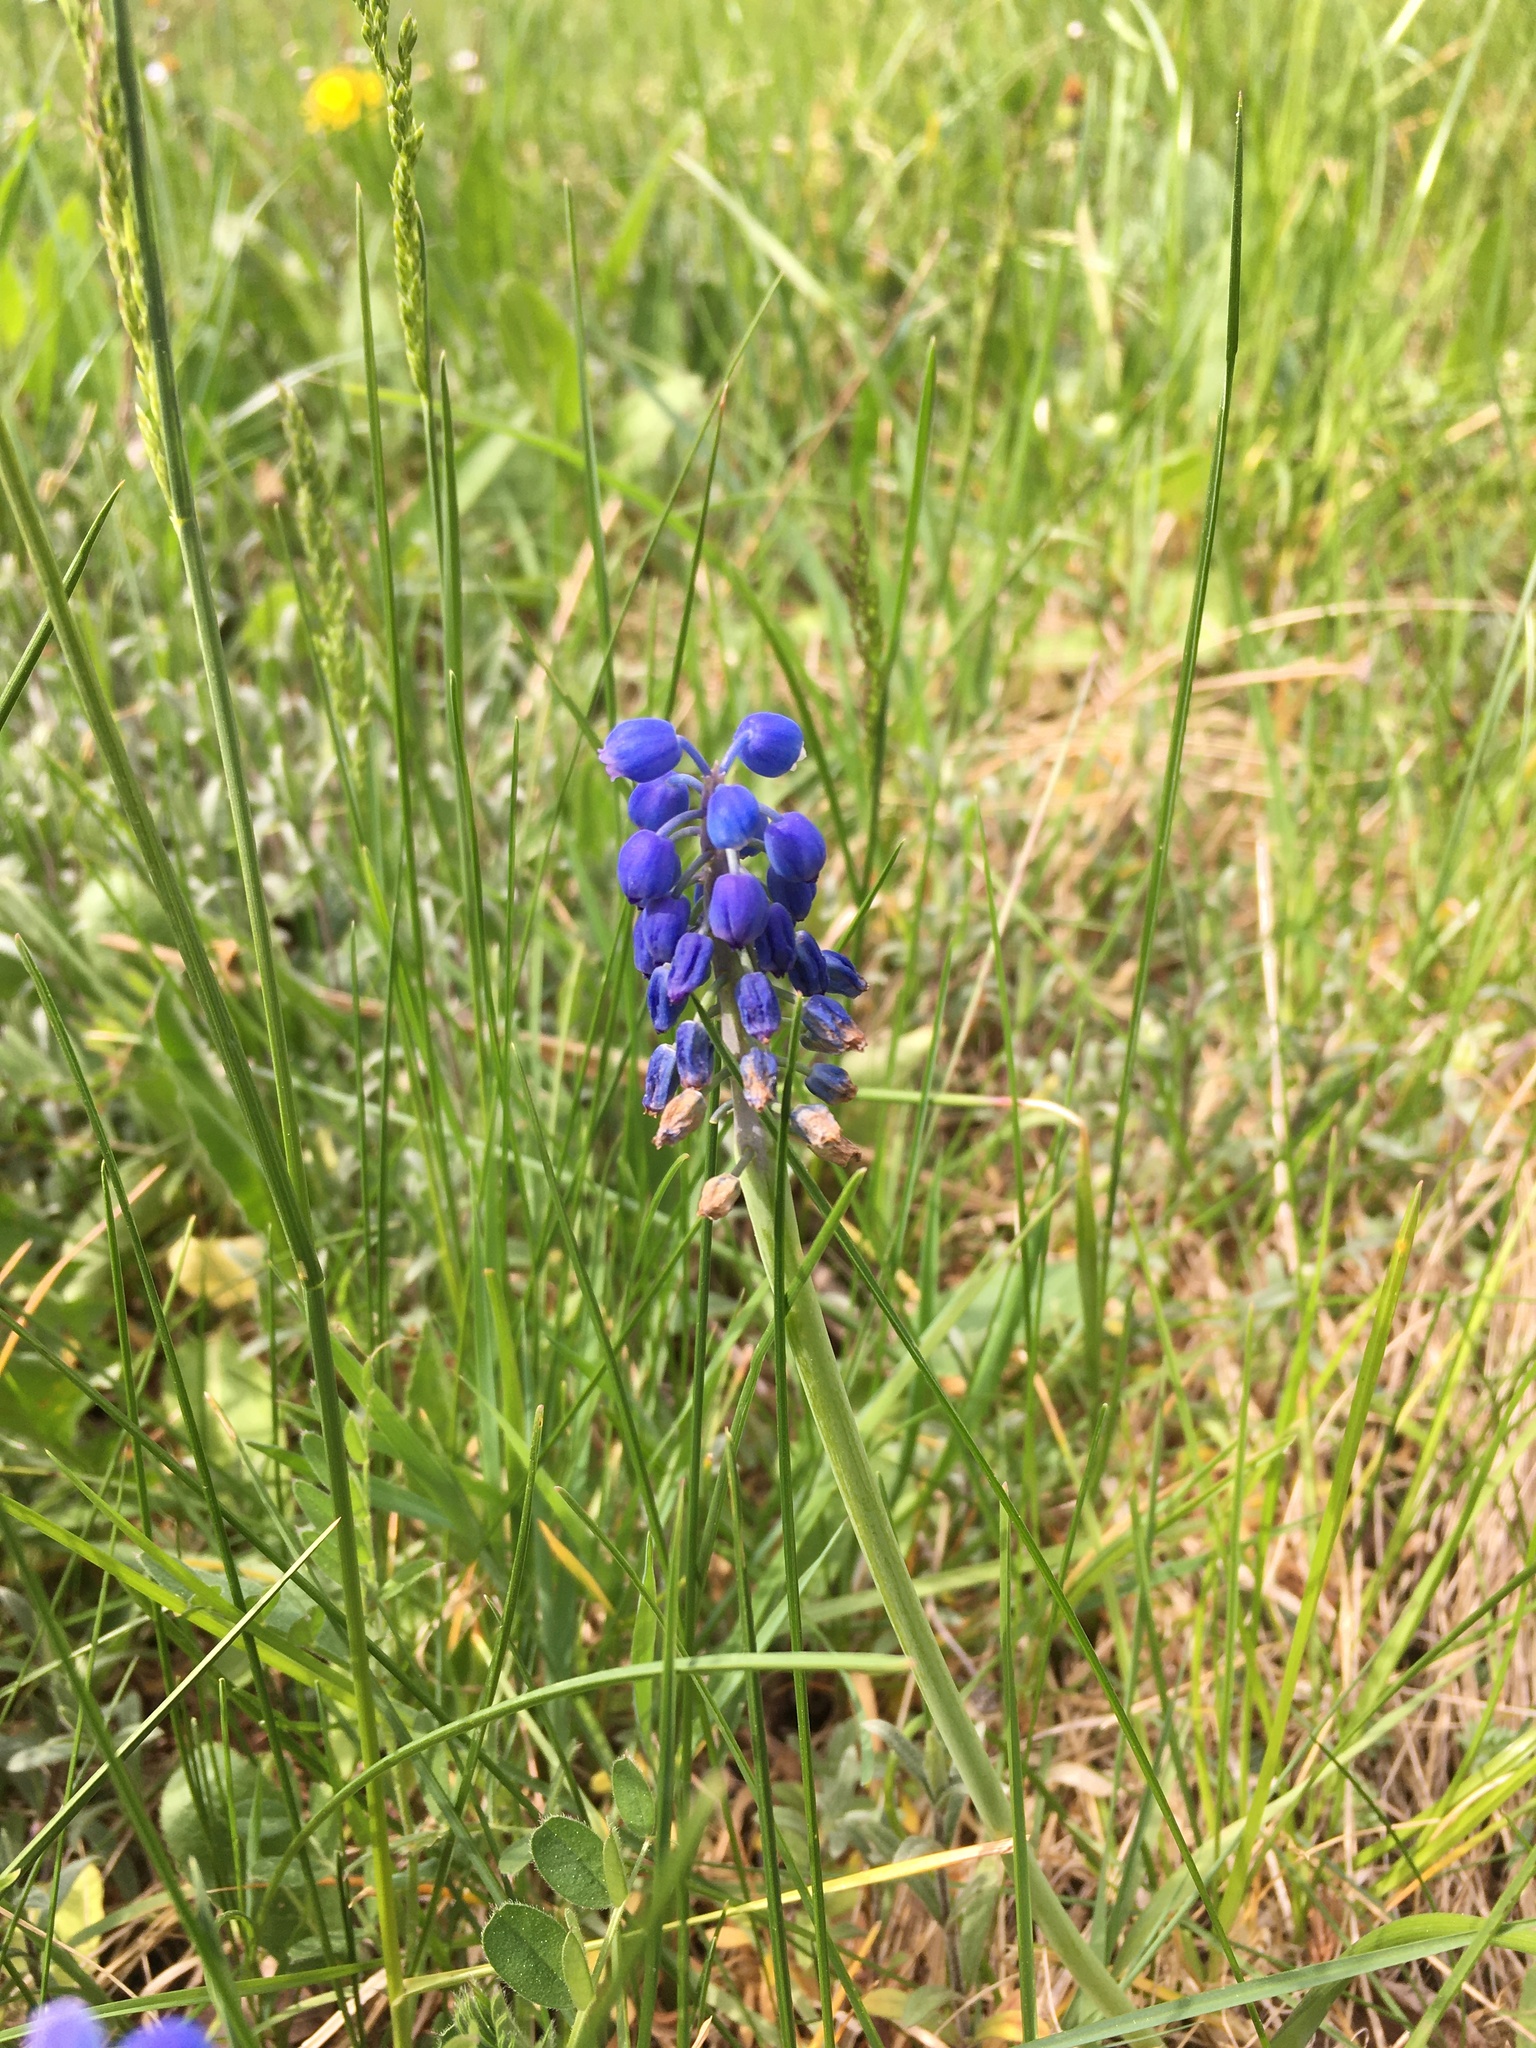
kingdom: Plantae
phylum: Tracheophyta
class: Liliopsida
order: Asparagales
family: Asparagaceae
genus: Muscari
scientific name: Muscari neglectum
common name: Grape-hyacinth
